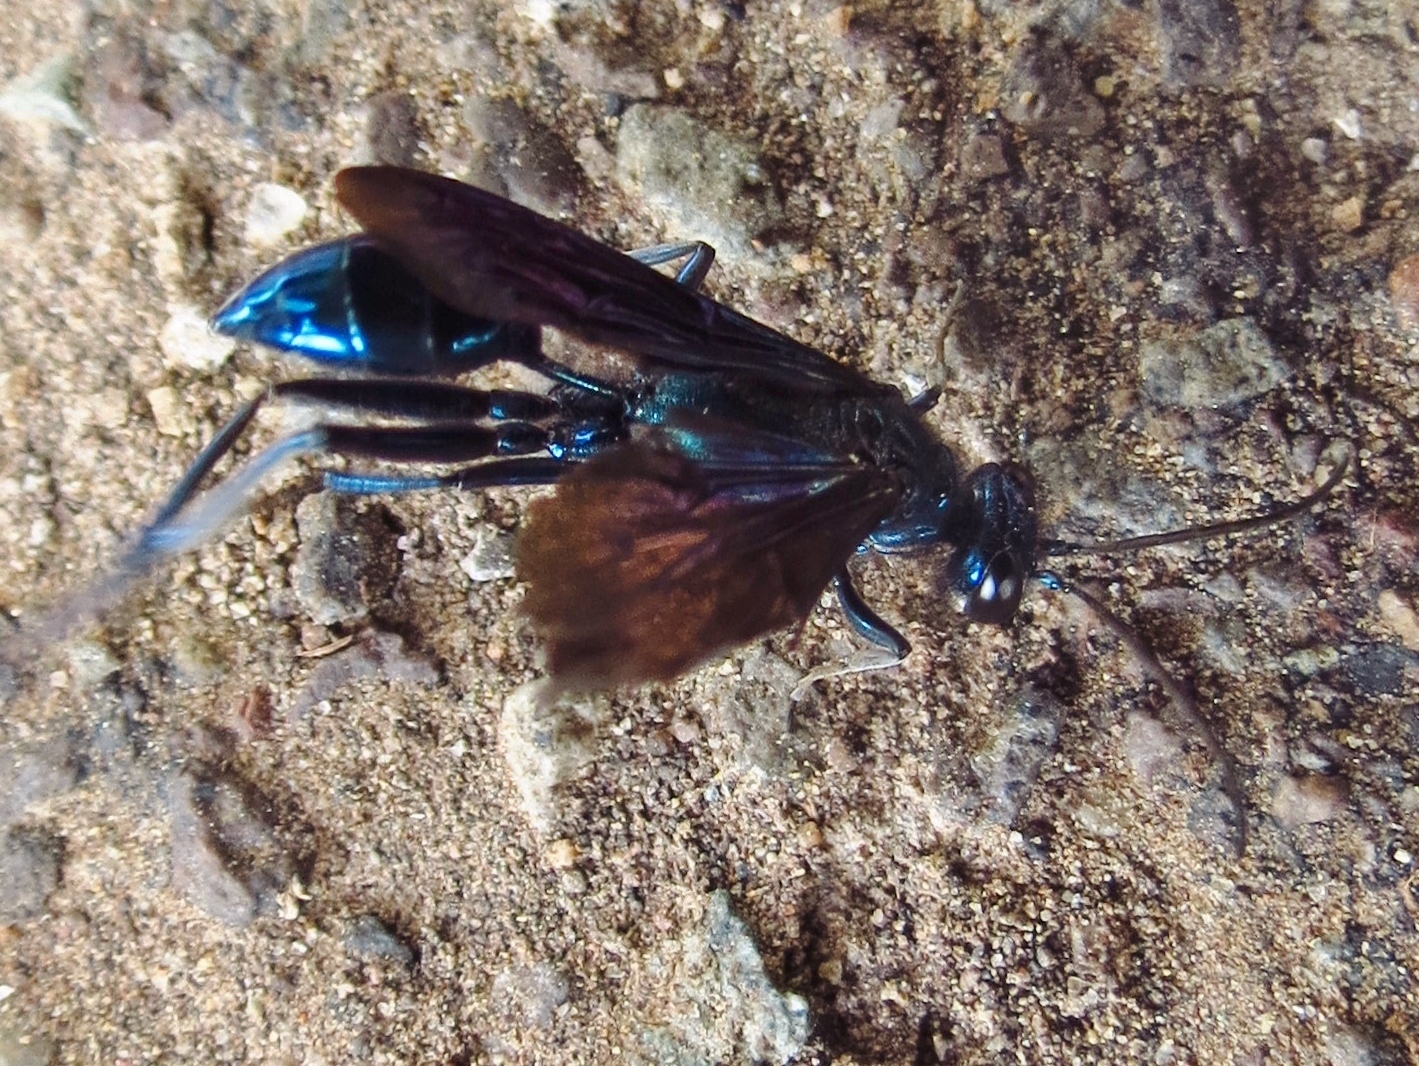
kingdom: Animalia
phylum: Arthropoda
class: Insecta
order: Hymenoptera
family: Sphecidae
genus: Chalybion
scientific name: Chalybion californicum
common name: Mud dauber
